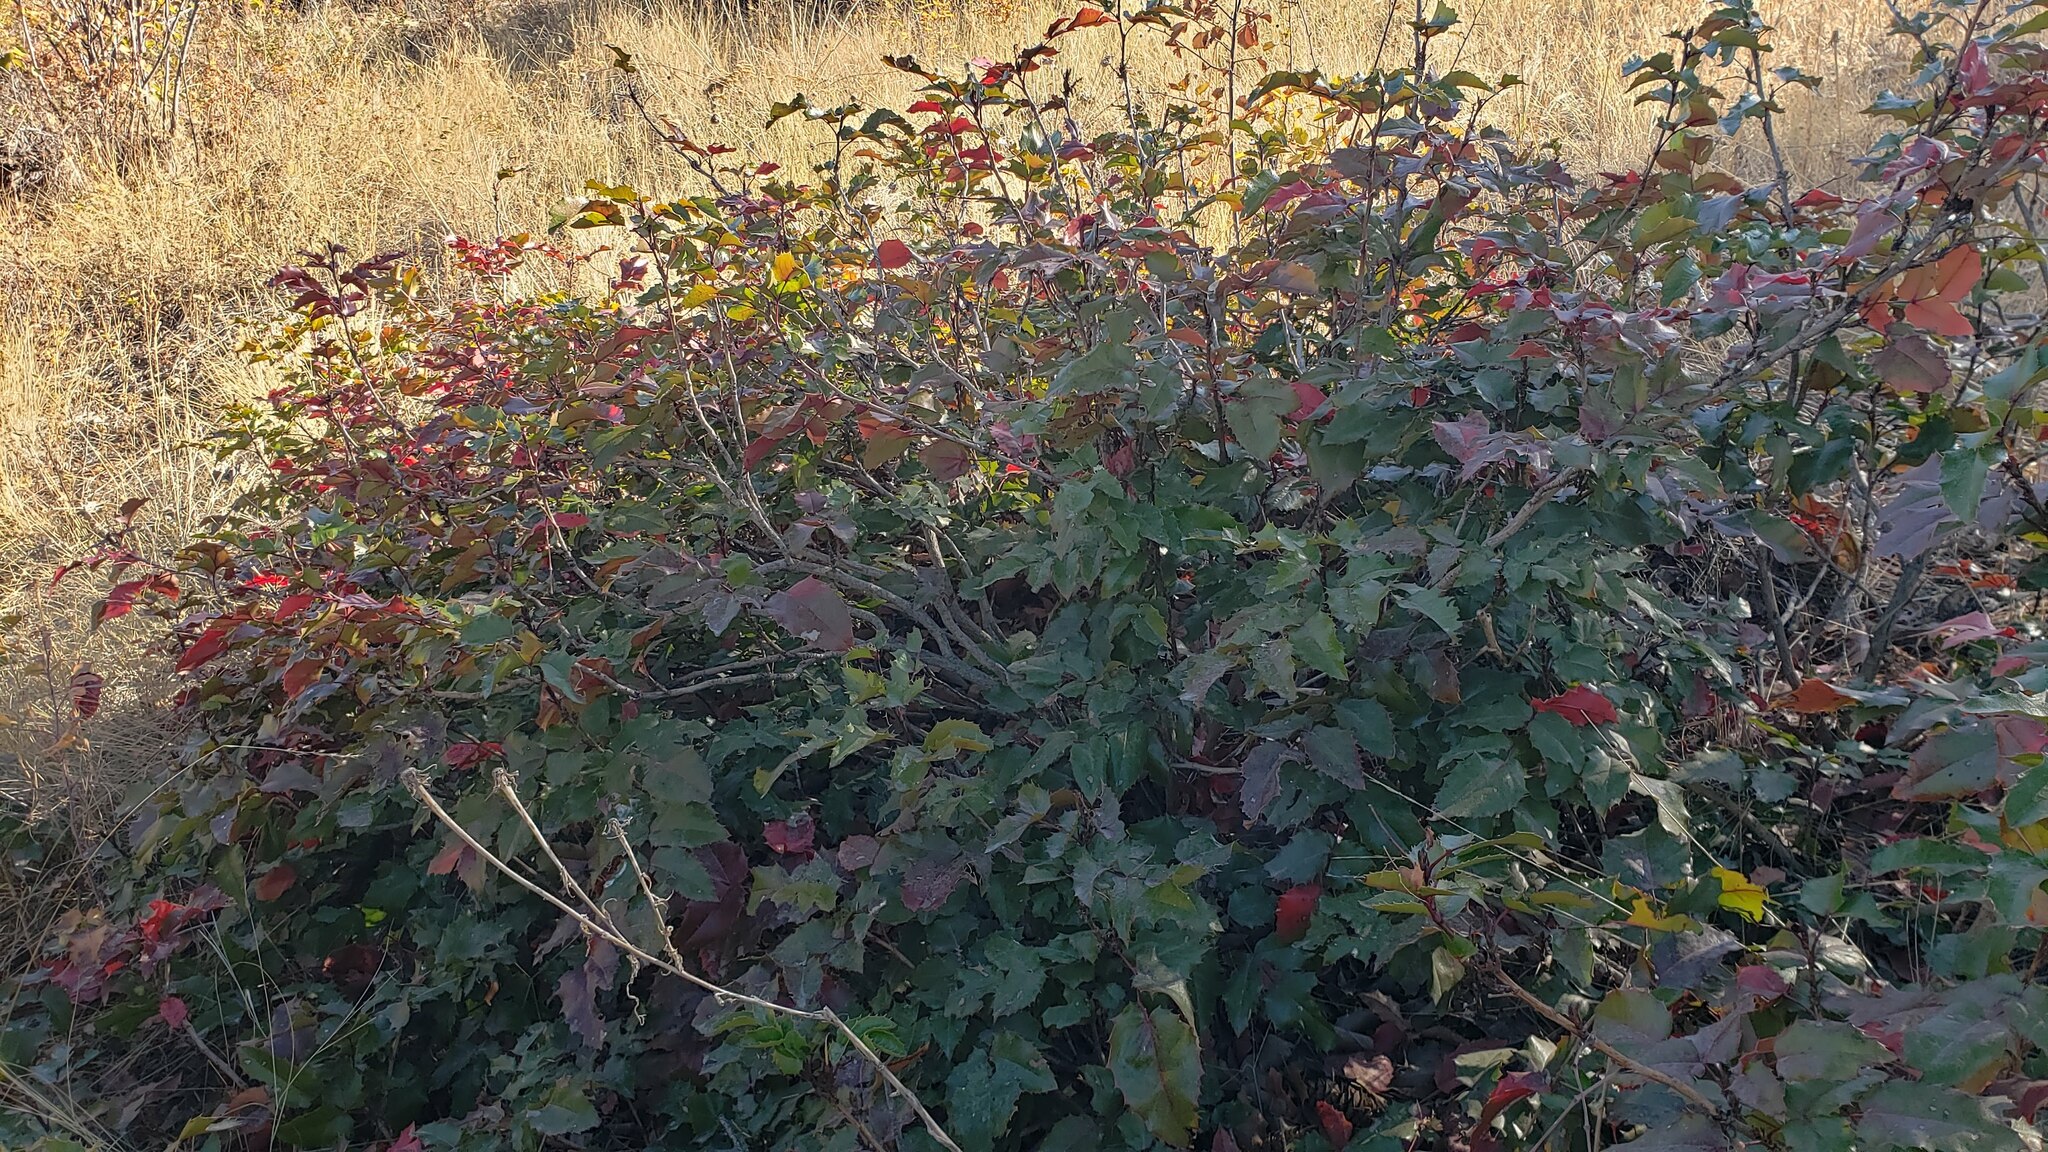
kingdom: Plantae
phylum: Tracheophyta
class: Magnoliopsida
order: Ranunculales
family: Berberidaceae
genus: Mahonia
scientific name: Mahonia aquifolium
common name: Oregon-grape
